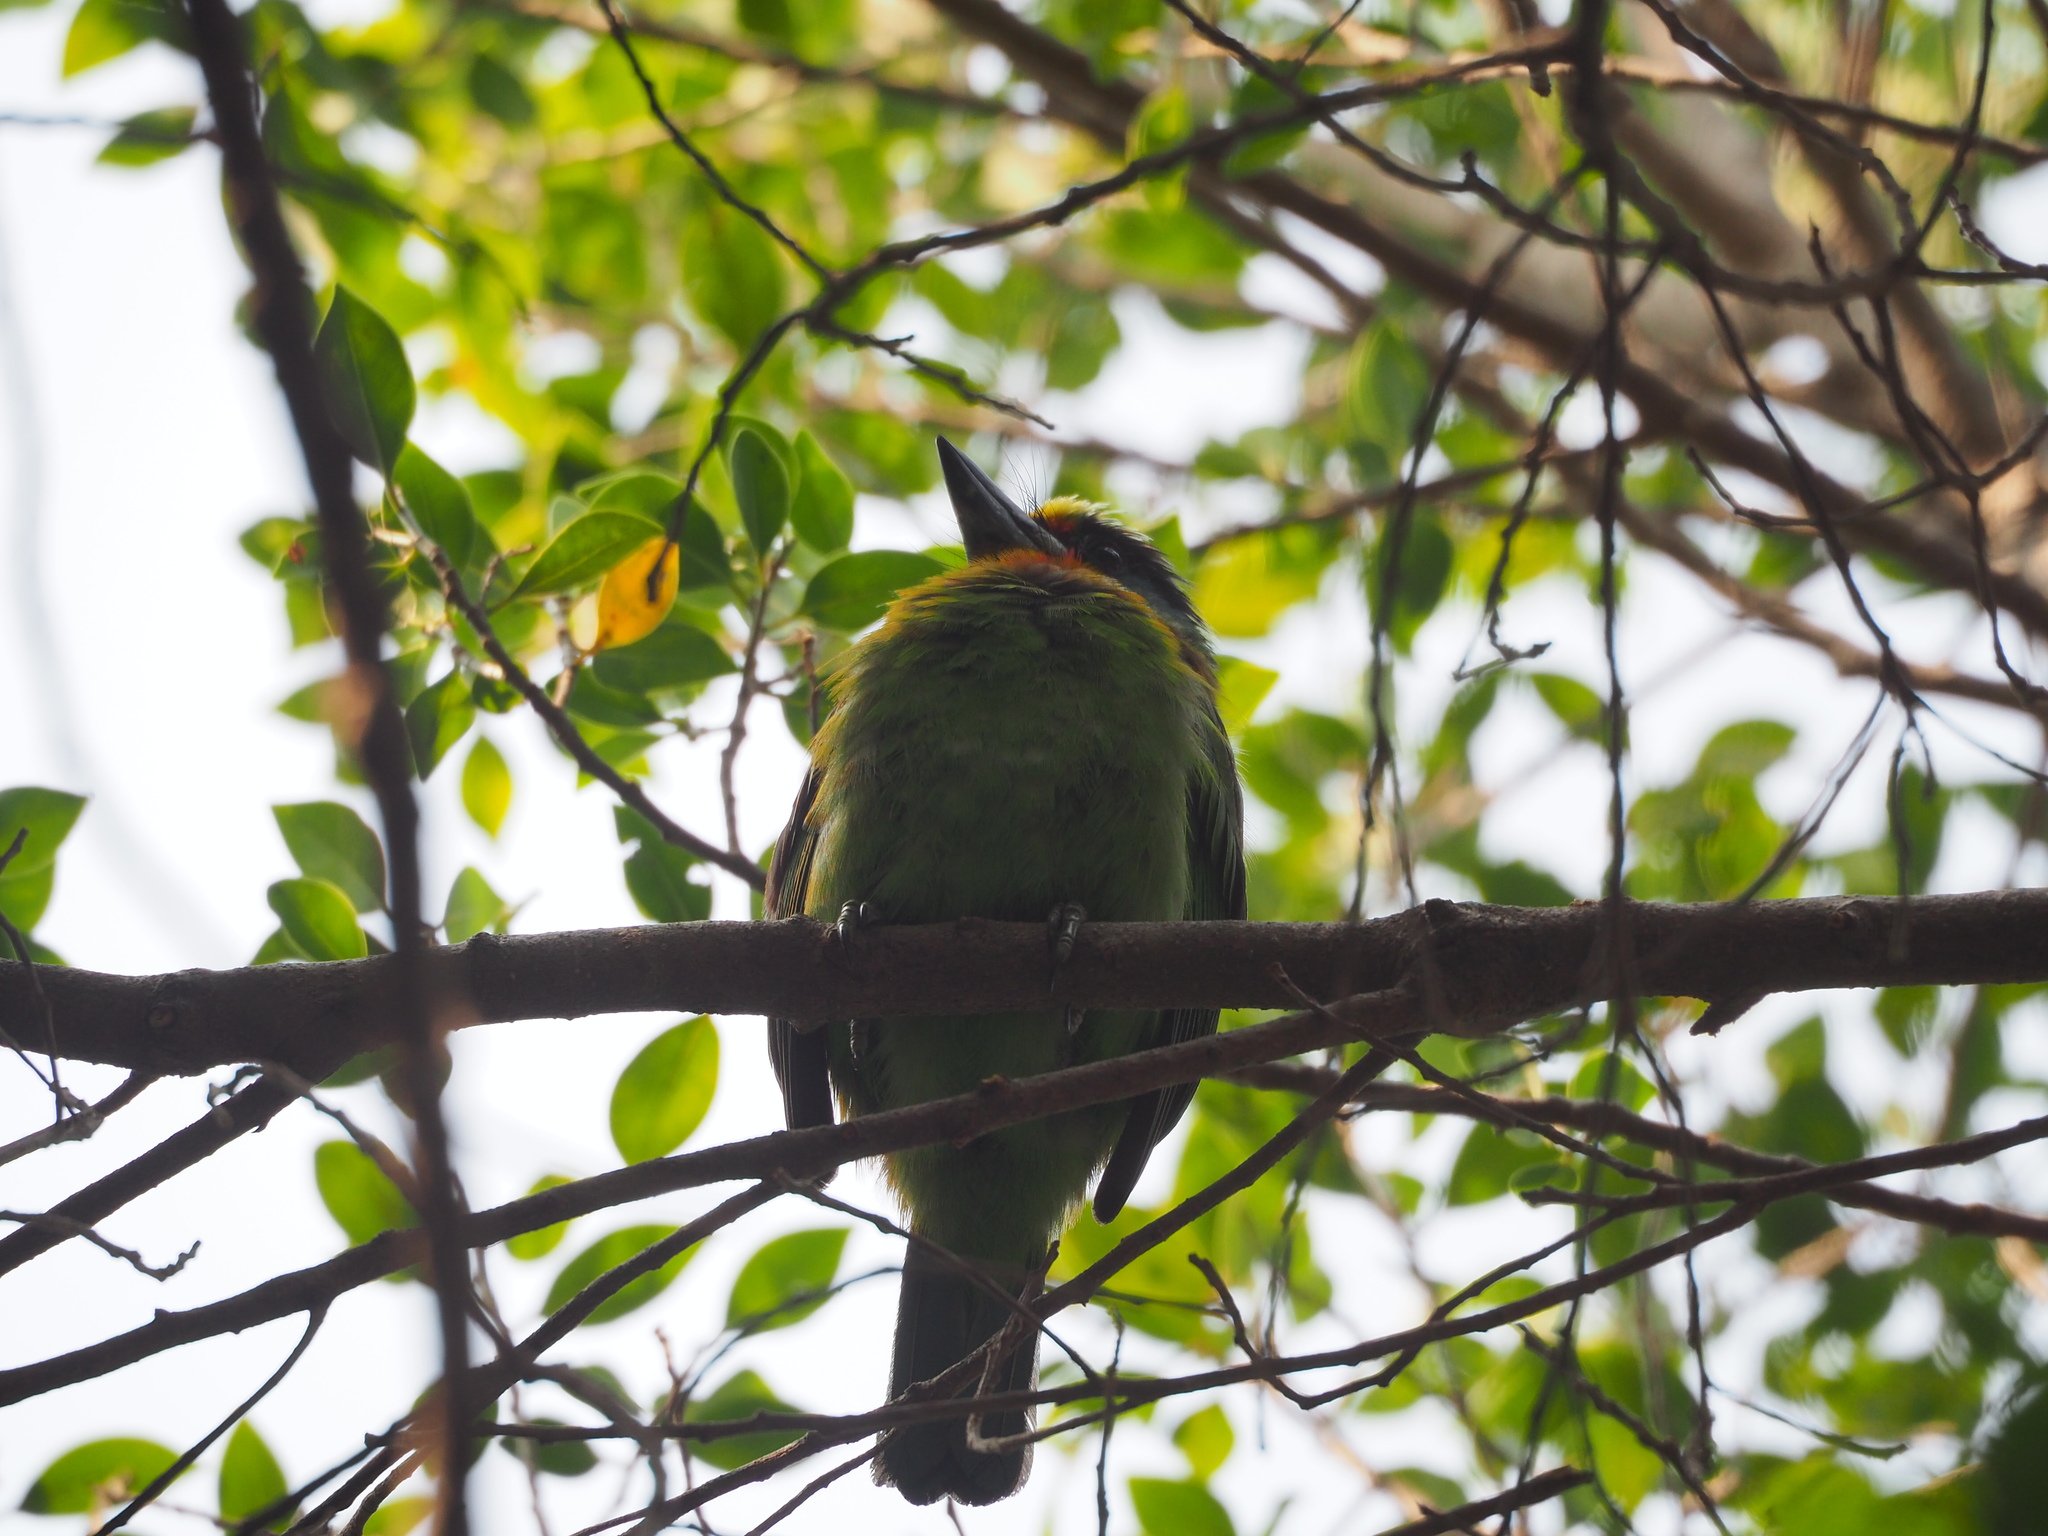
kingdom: Animalia
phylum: Chordata
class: Aves
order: Piciformes
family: Megalaimidae
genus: Psilopogon
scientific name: Psilopogon nuchalis
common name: Taiwan barbet
